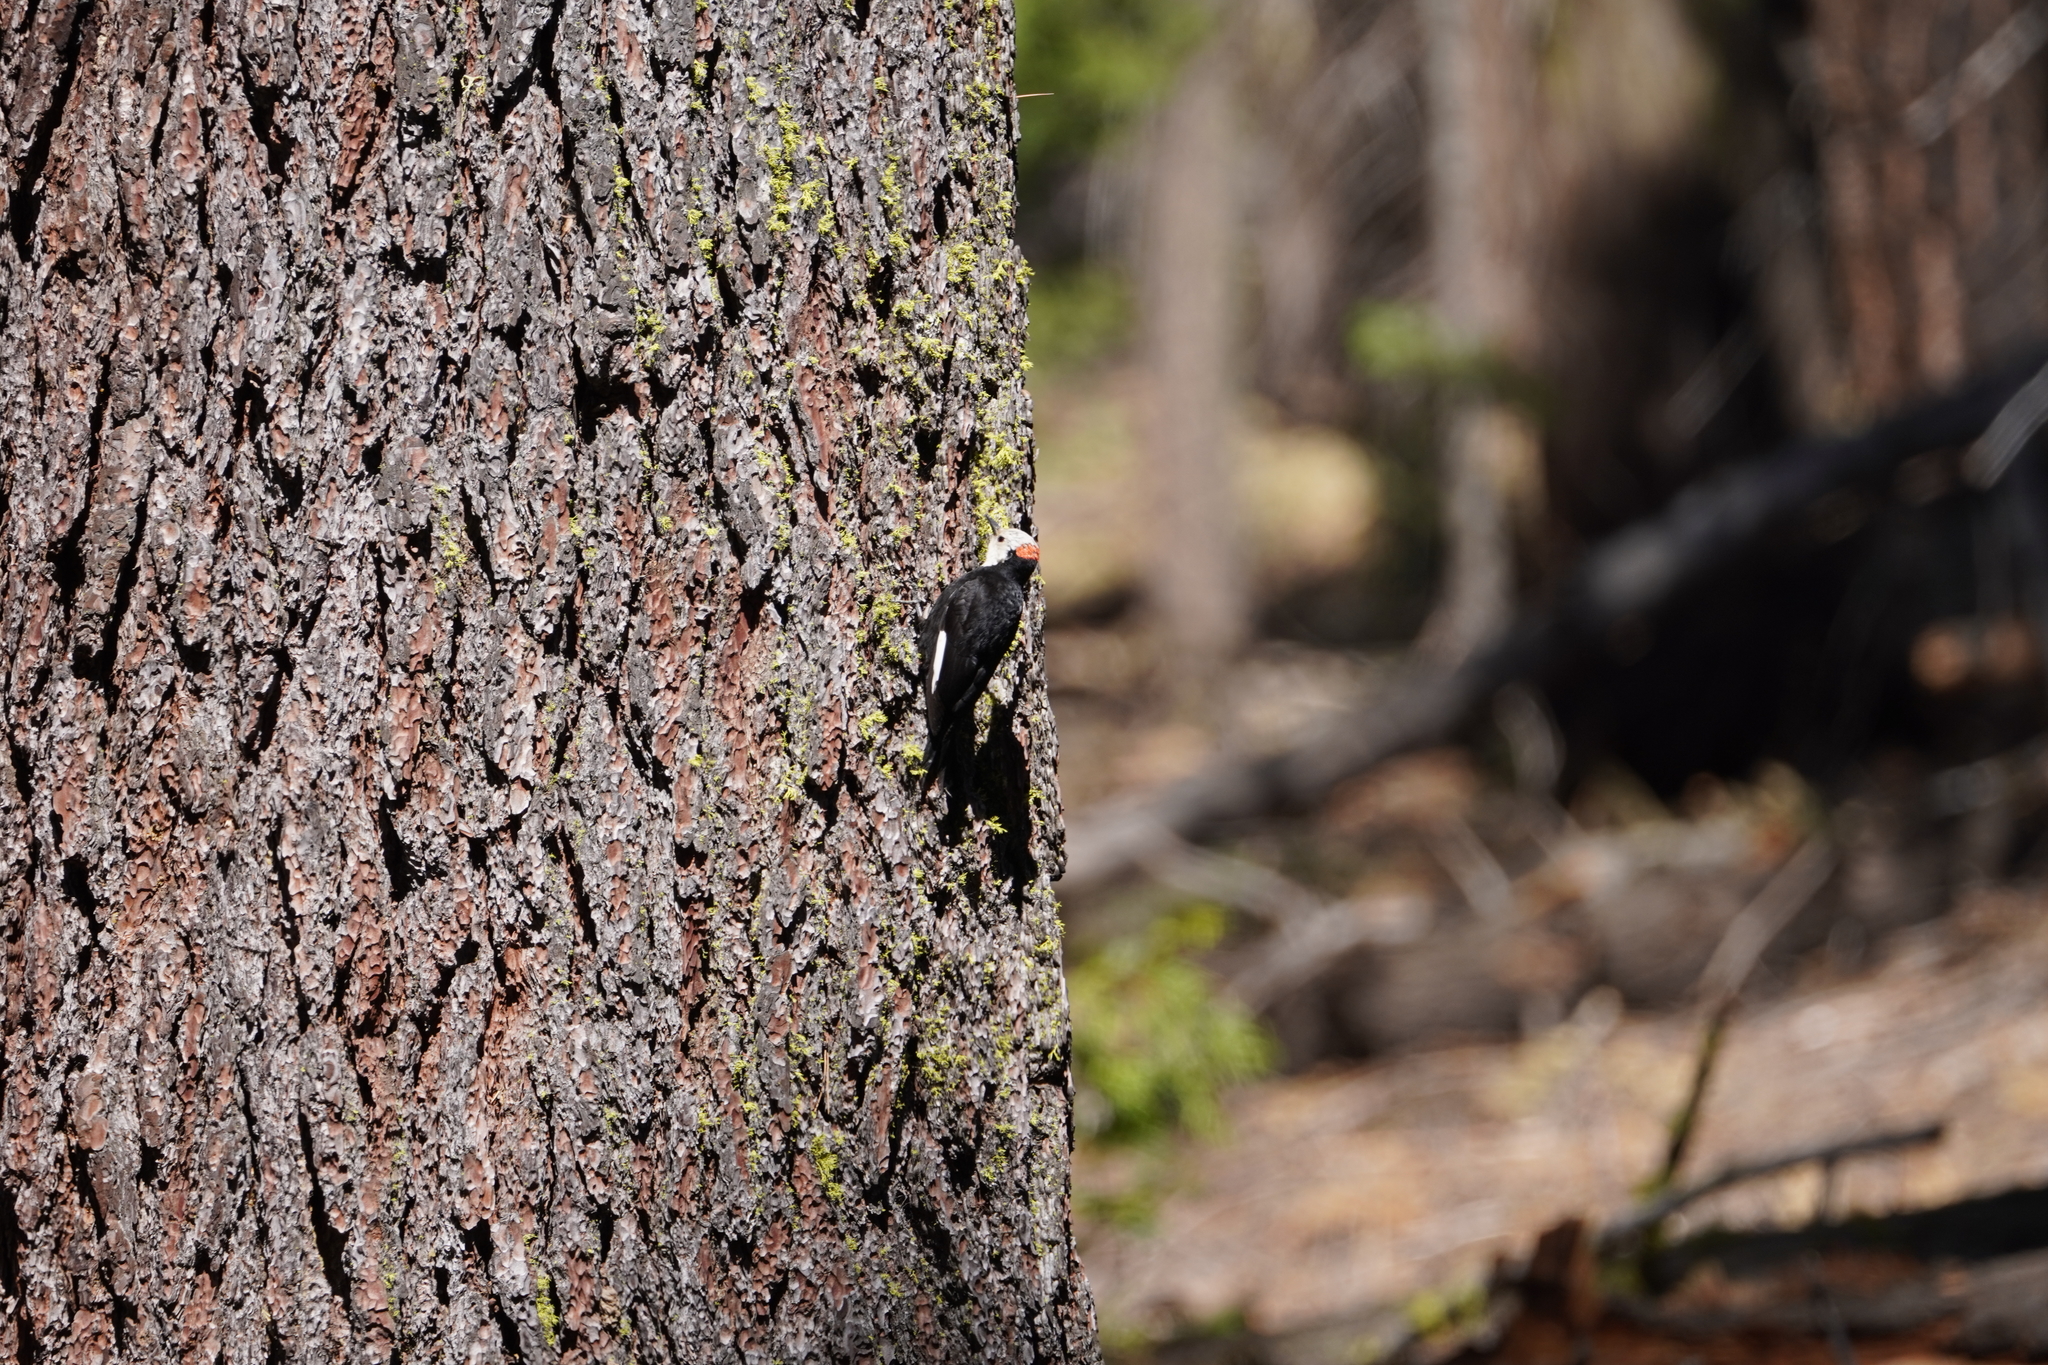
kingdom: Animalia
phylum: Chordata
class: Aves
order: Piciformes
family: Picidae
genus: Leuconotopicus
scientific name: Leuconotopicus albolarvatus
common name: White-headed woodpecker
